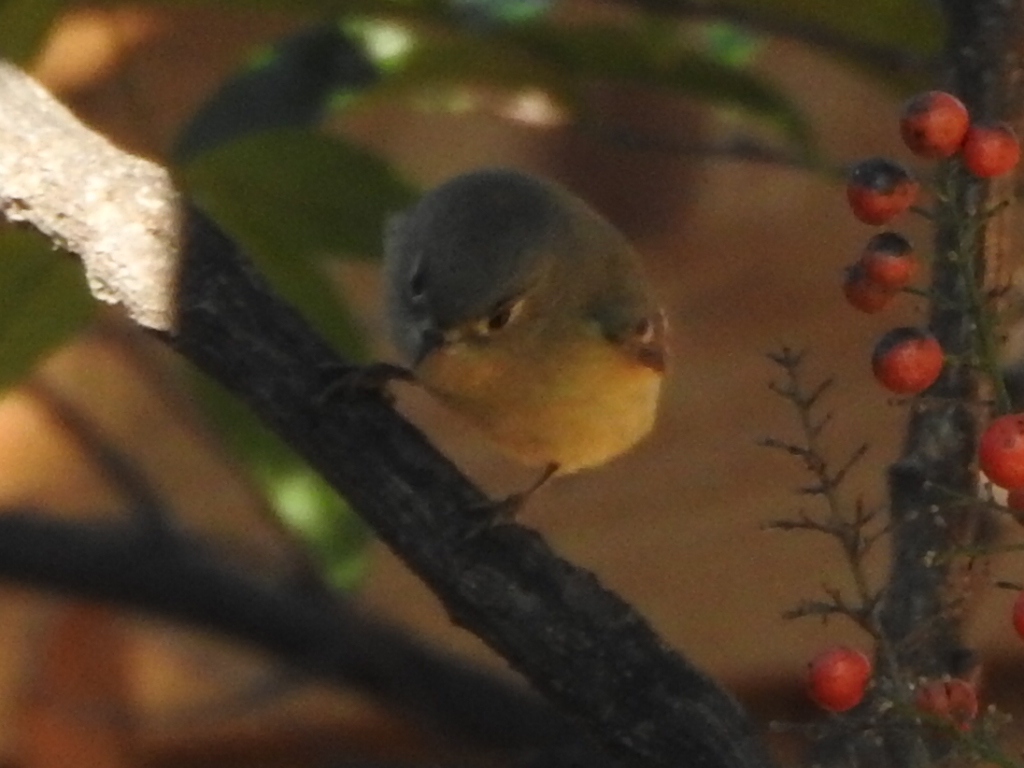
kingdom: Animalia
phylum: Chordata
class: Aves
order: Passeriformes
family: Regulidae
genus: Regulus
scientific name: Regulus calendula
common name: Ruby-crowned kinglet
